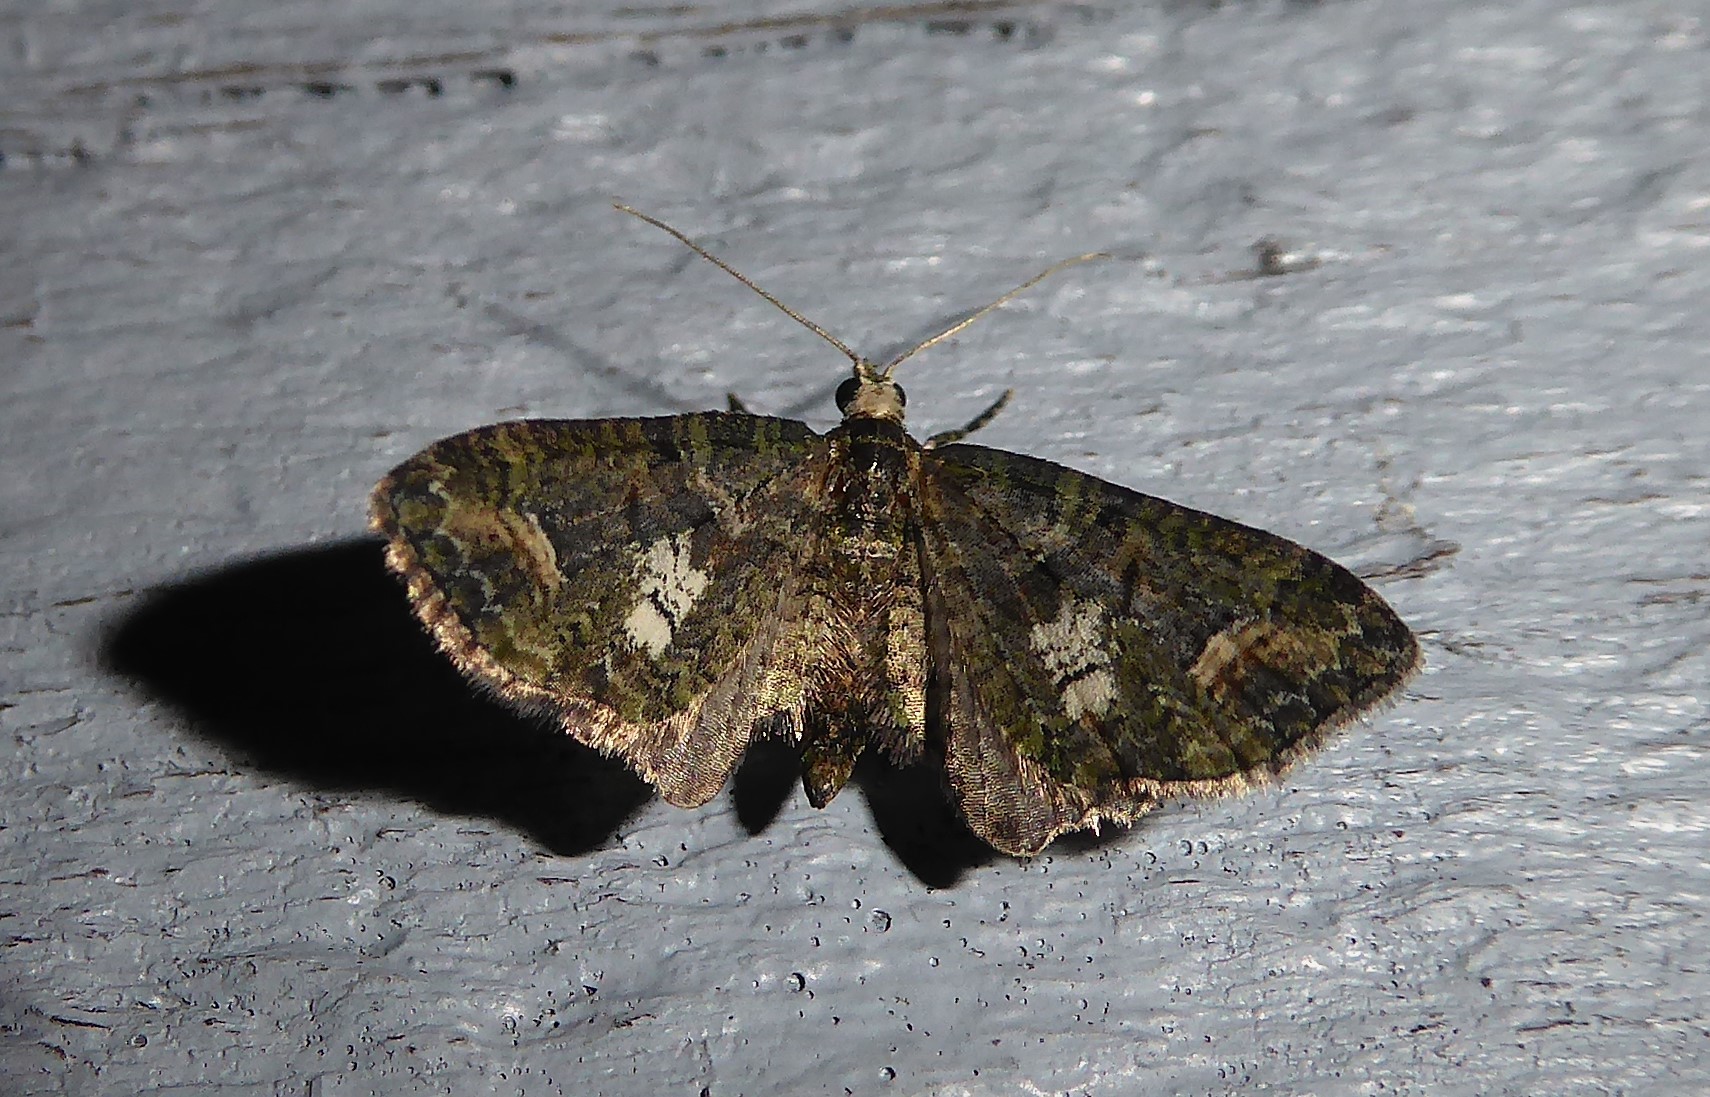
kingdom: Animalia
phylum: Arthropoda
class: Insecta
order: Lepidoptera
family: Geometridae
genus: Idaea
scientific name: Idaea mutanda
